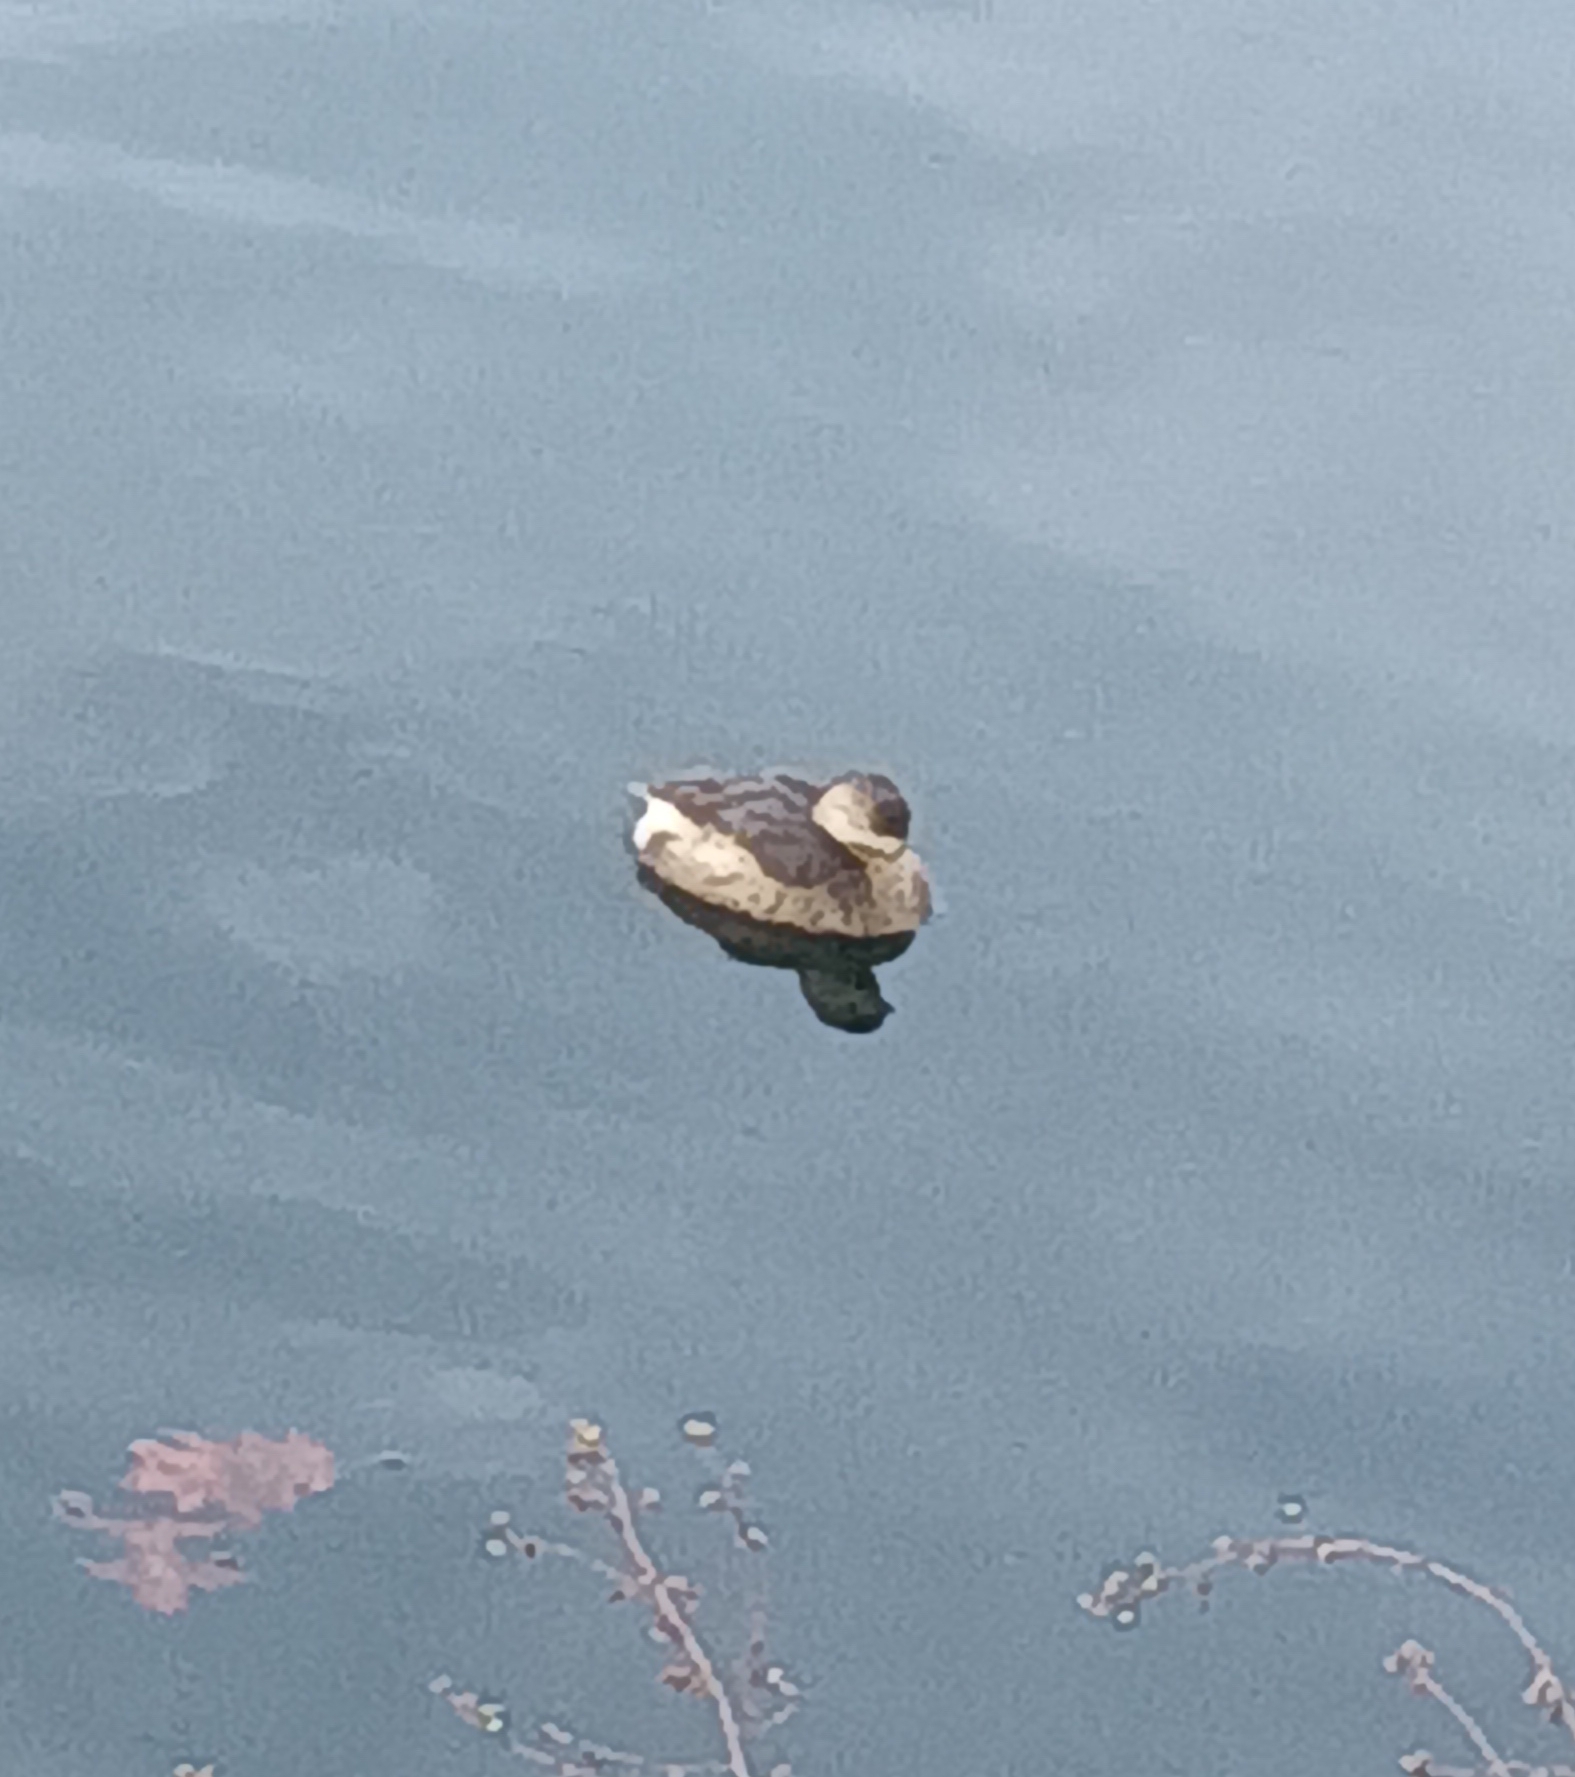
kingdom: Animalia
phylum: Chordata
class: Aves
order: Podicipediformes
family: Podicipedidae
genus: Podilymbus
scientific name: Podilymbus podiceps
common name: Pied-billed grebe
